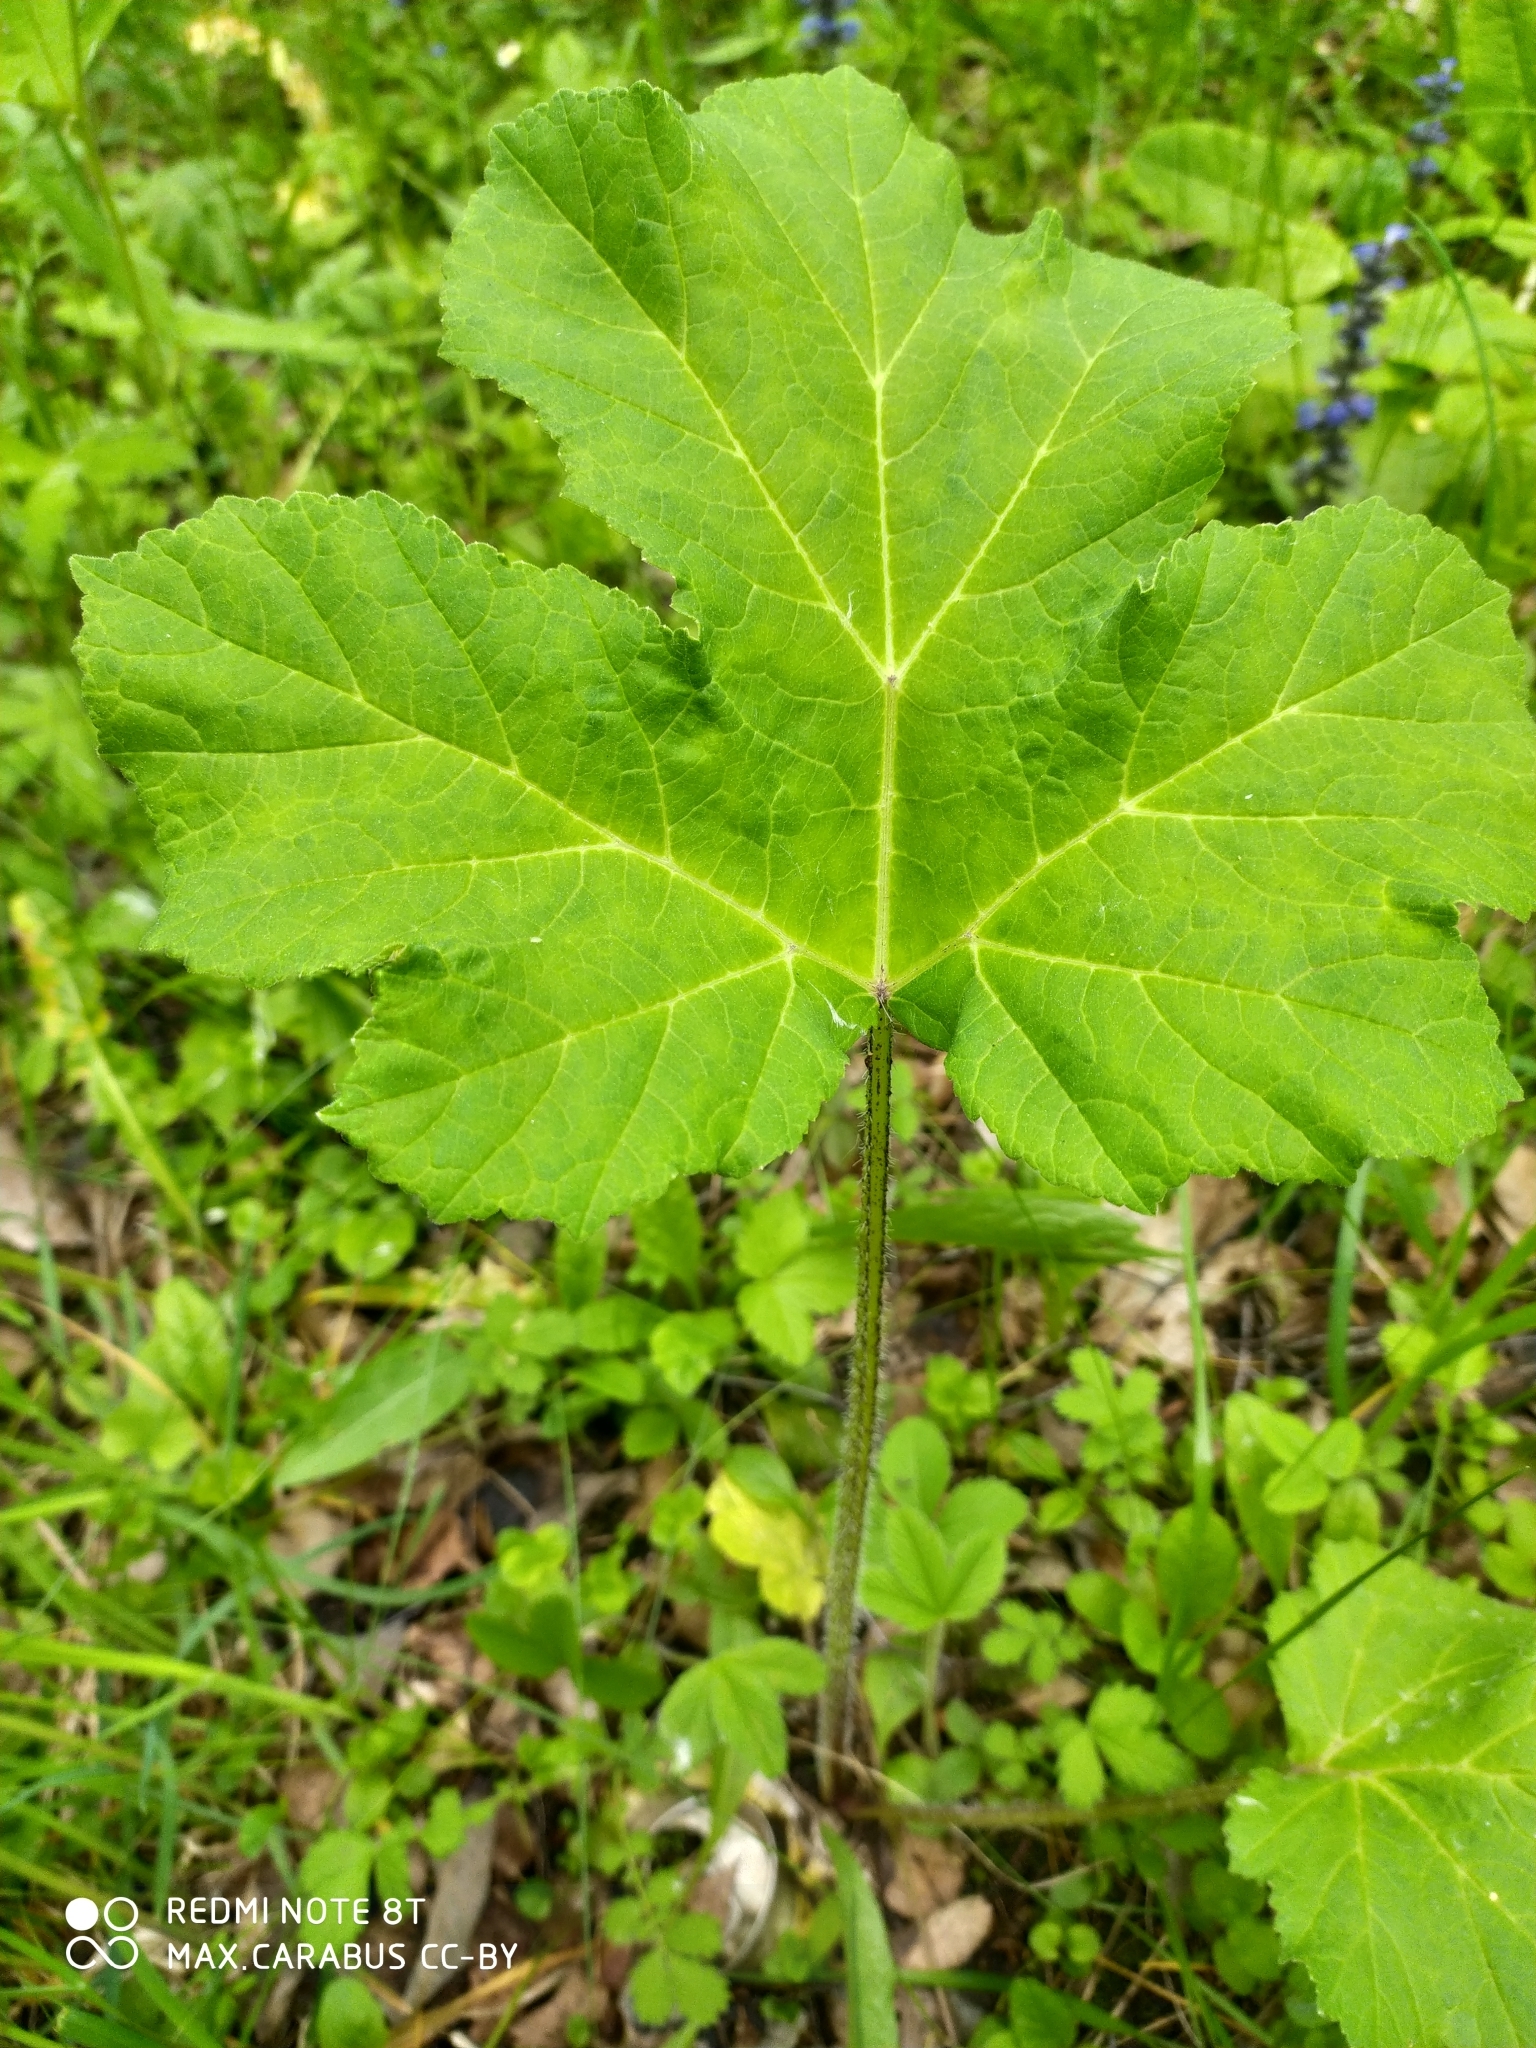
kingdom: Plantae
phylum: Tracheophyta
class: Magnoliopsida
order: Apiales
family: Apiaceae
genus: Heracleum
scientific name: Heracleum sosnowskyi
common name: Sosnowsky's hogweed
